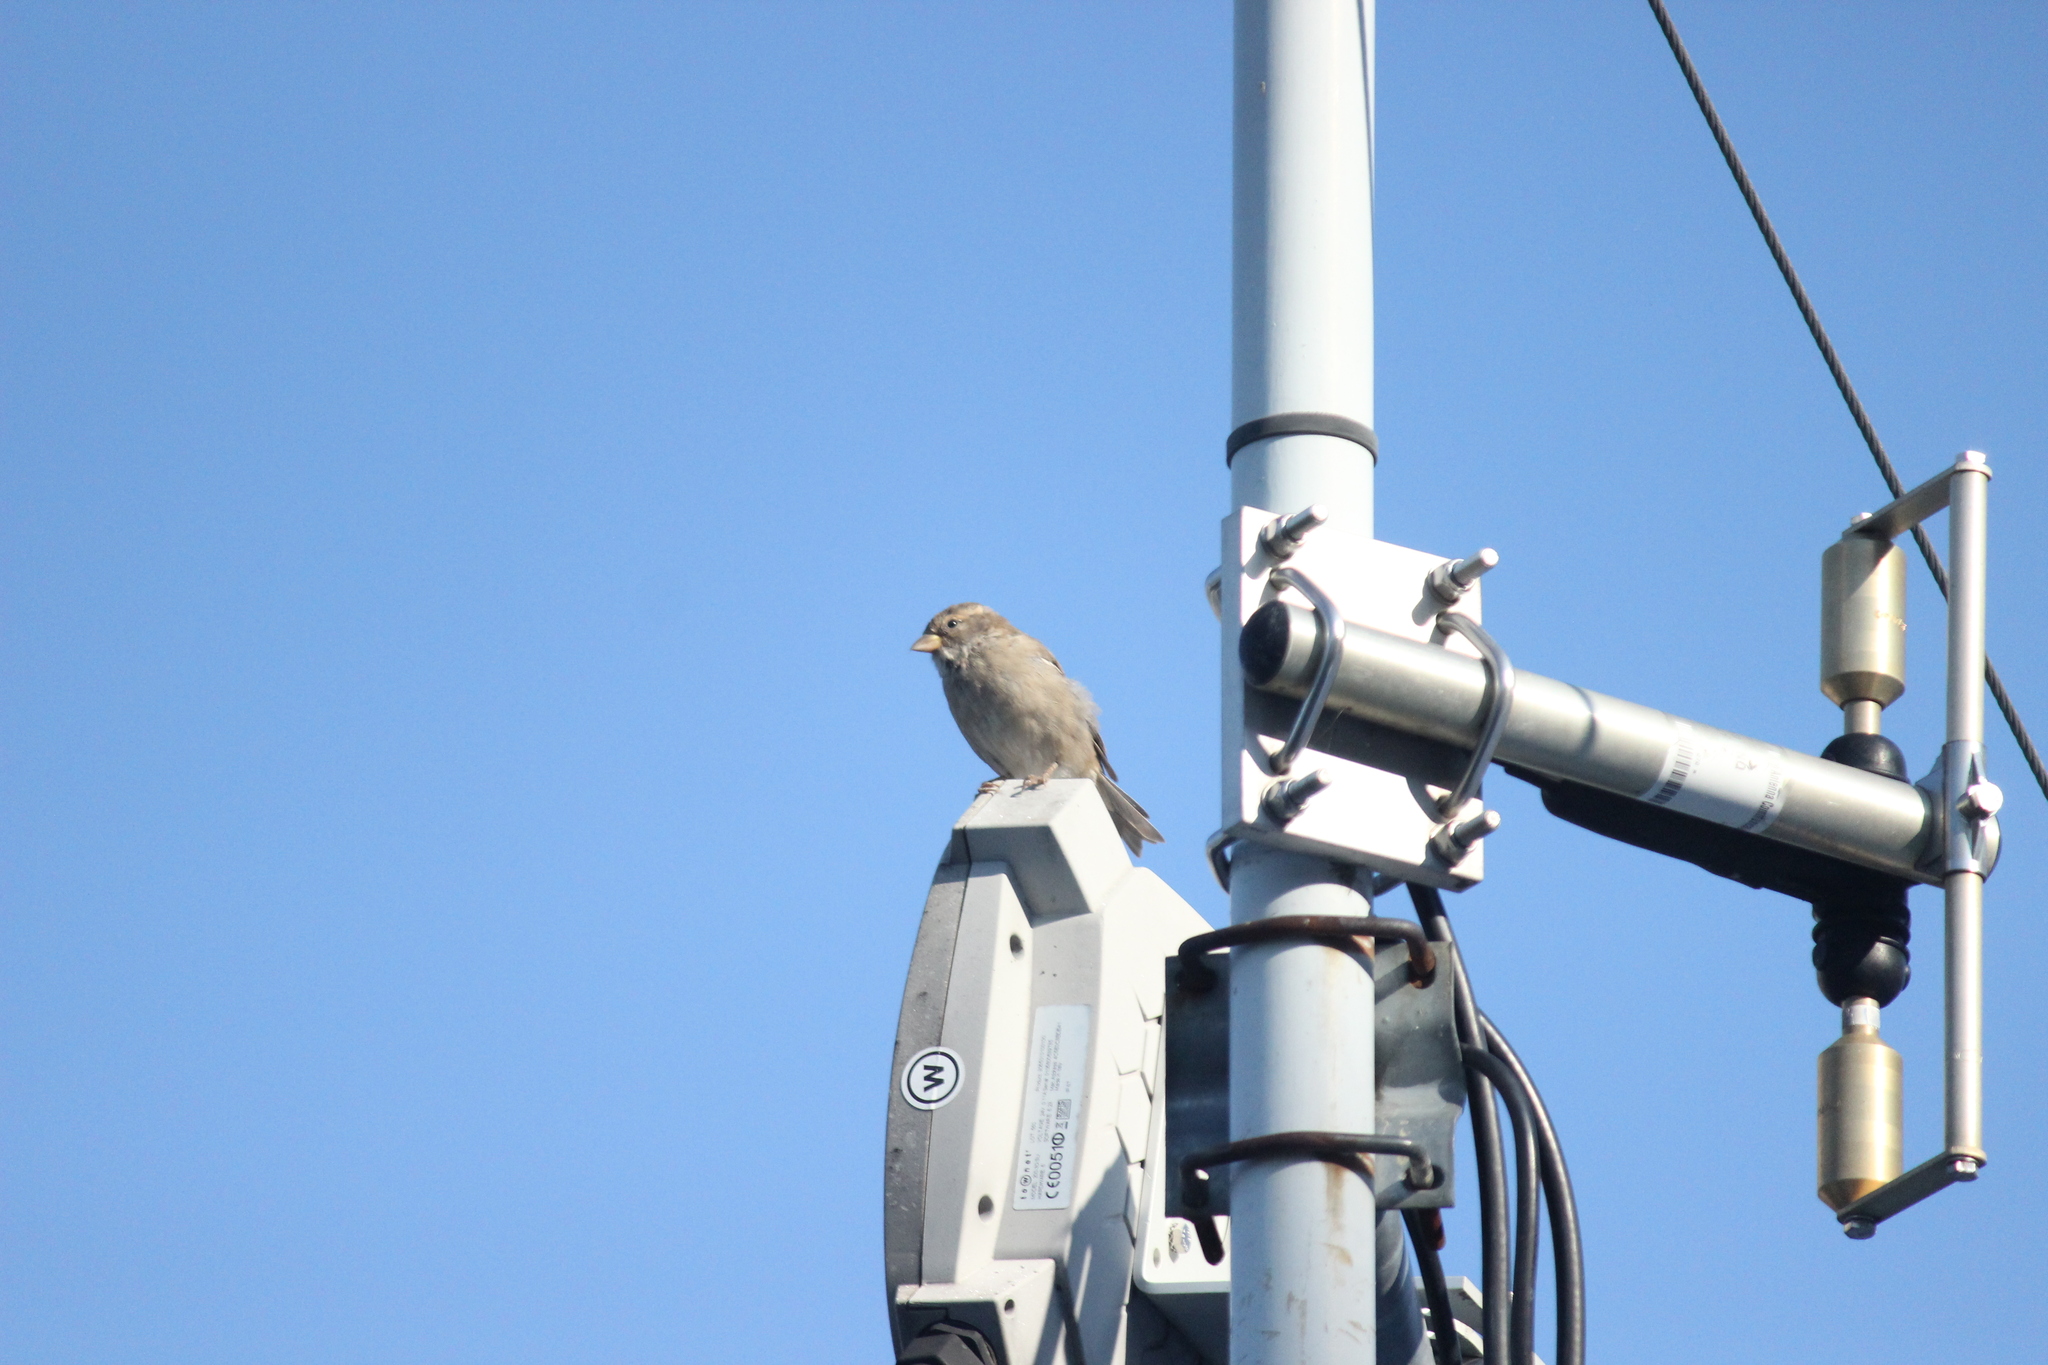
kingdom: Animalia
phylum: Chordata
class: Aves
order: Passeriformes
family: Passeridae
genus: Passer
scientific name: Passer italiae
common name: Italian sparrow
